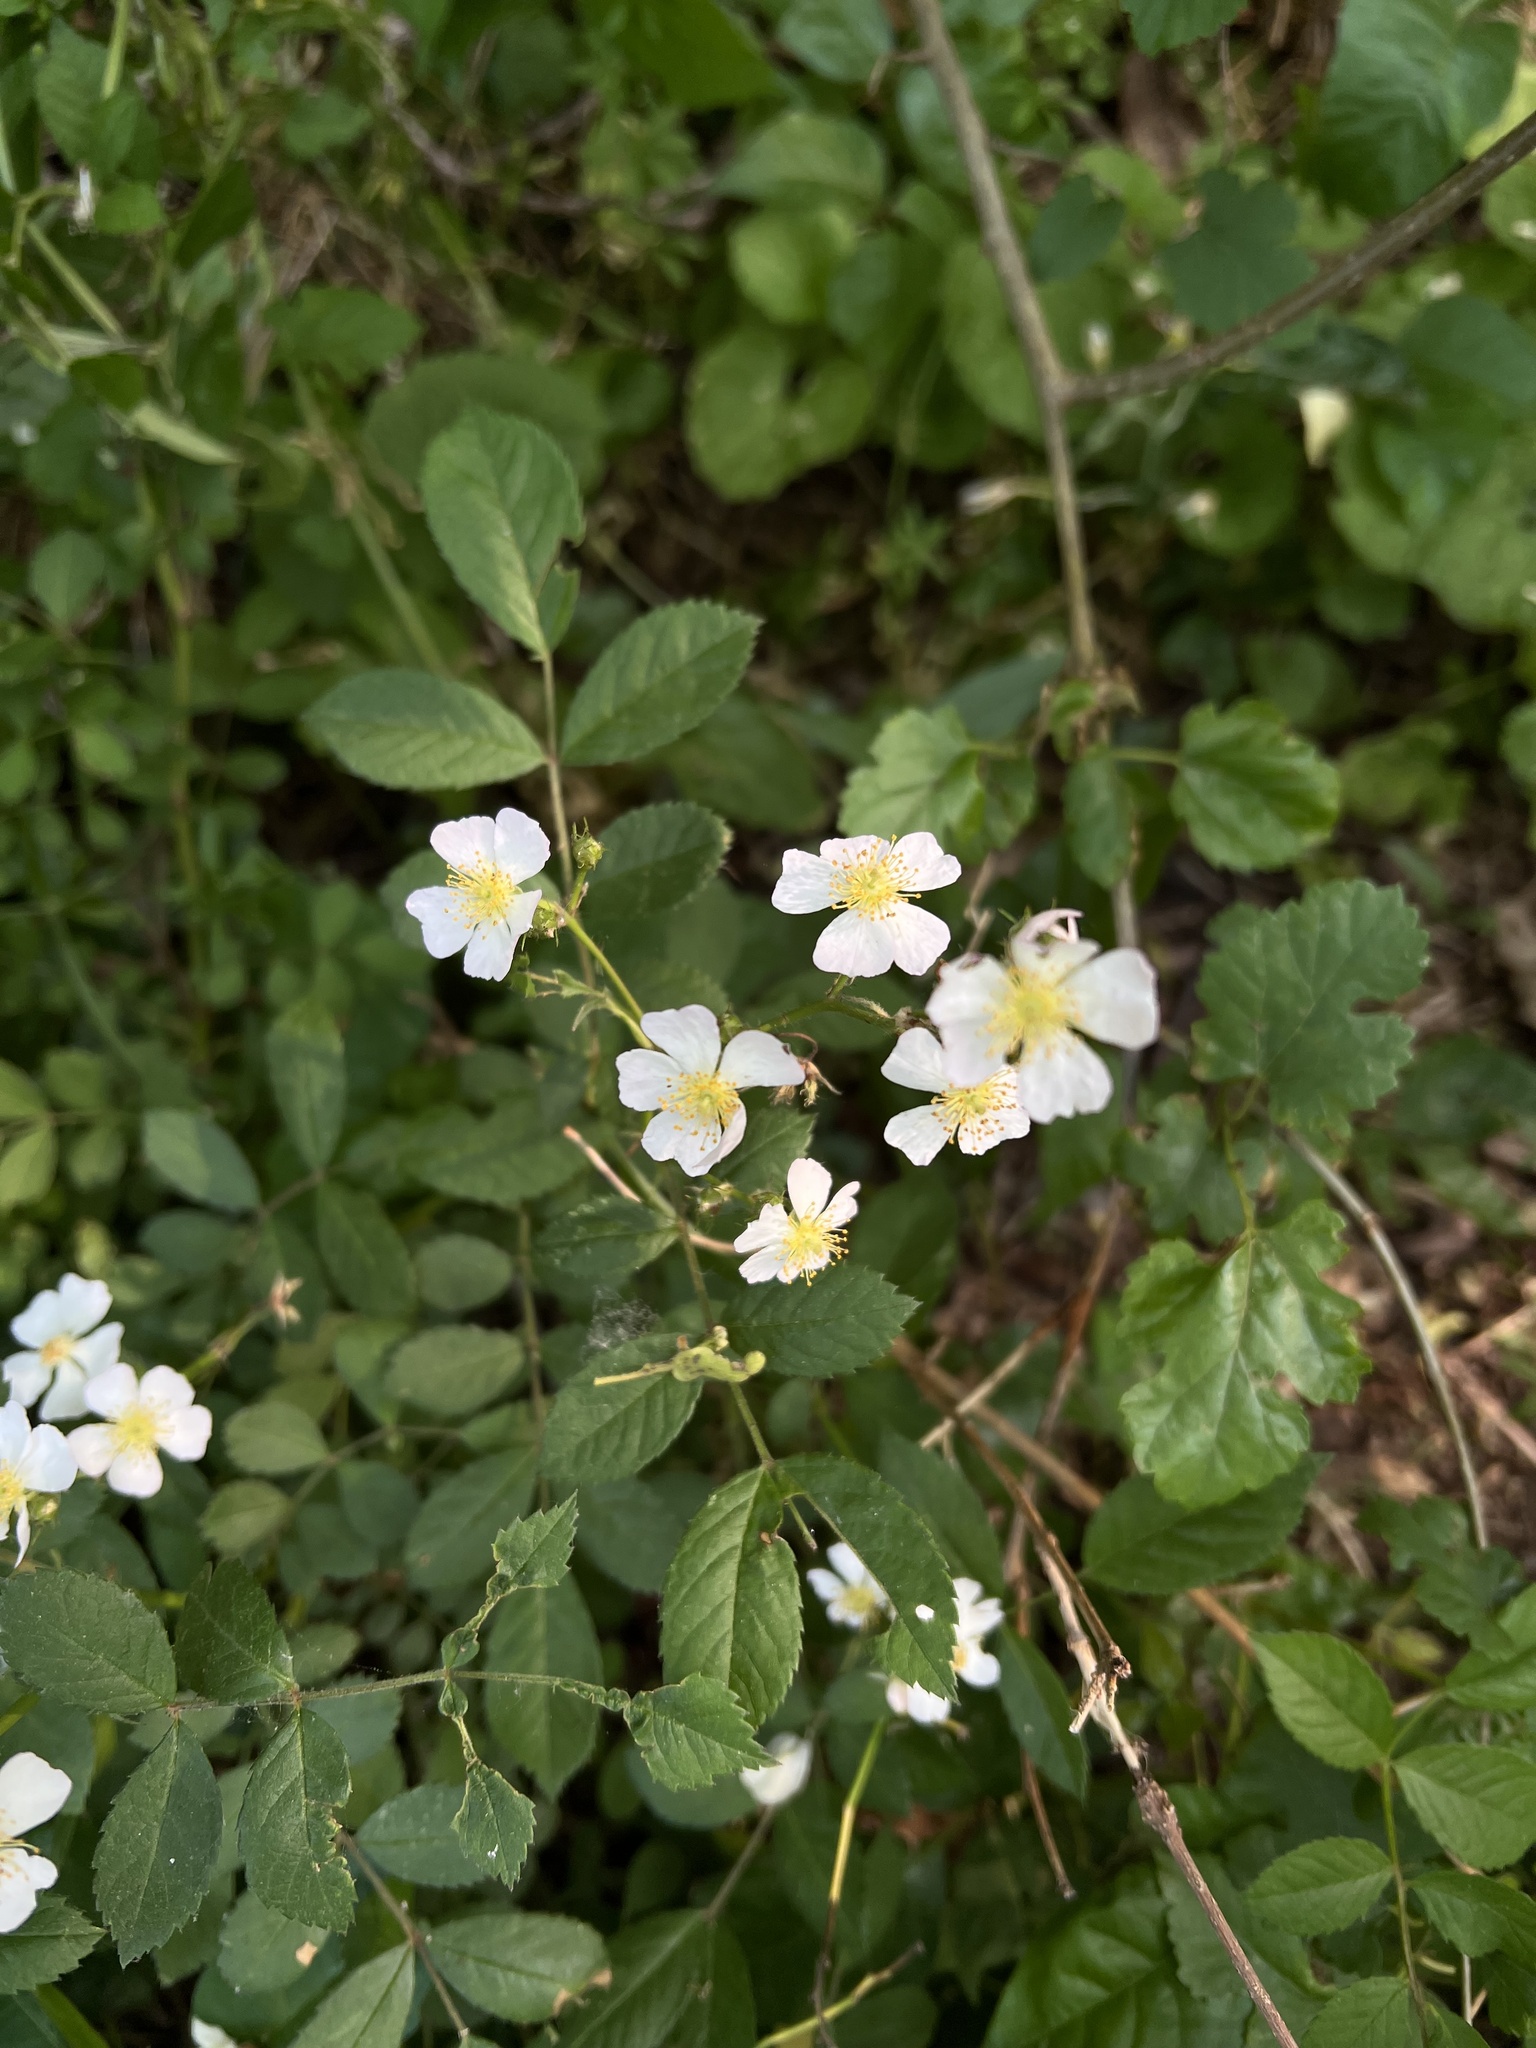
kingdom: Plantae
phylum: Tracheophyta
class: Magnoliopsida
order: Rosales
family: Rosaceae
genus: Rosa
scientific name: Rosa multiflora
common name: Multiflora rose
